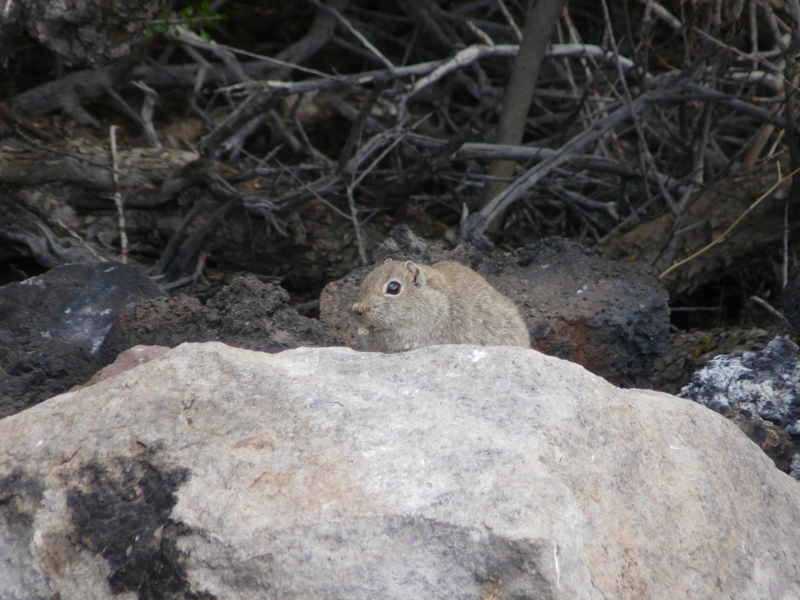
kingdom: Animalia
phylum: Chordata
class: Mammalia
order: Rodentia
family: Caviidae
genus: Microcavia
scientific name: Microcavia australis
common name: Southern mountain cavy
